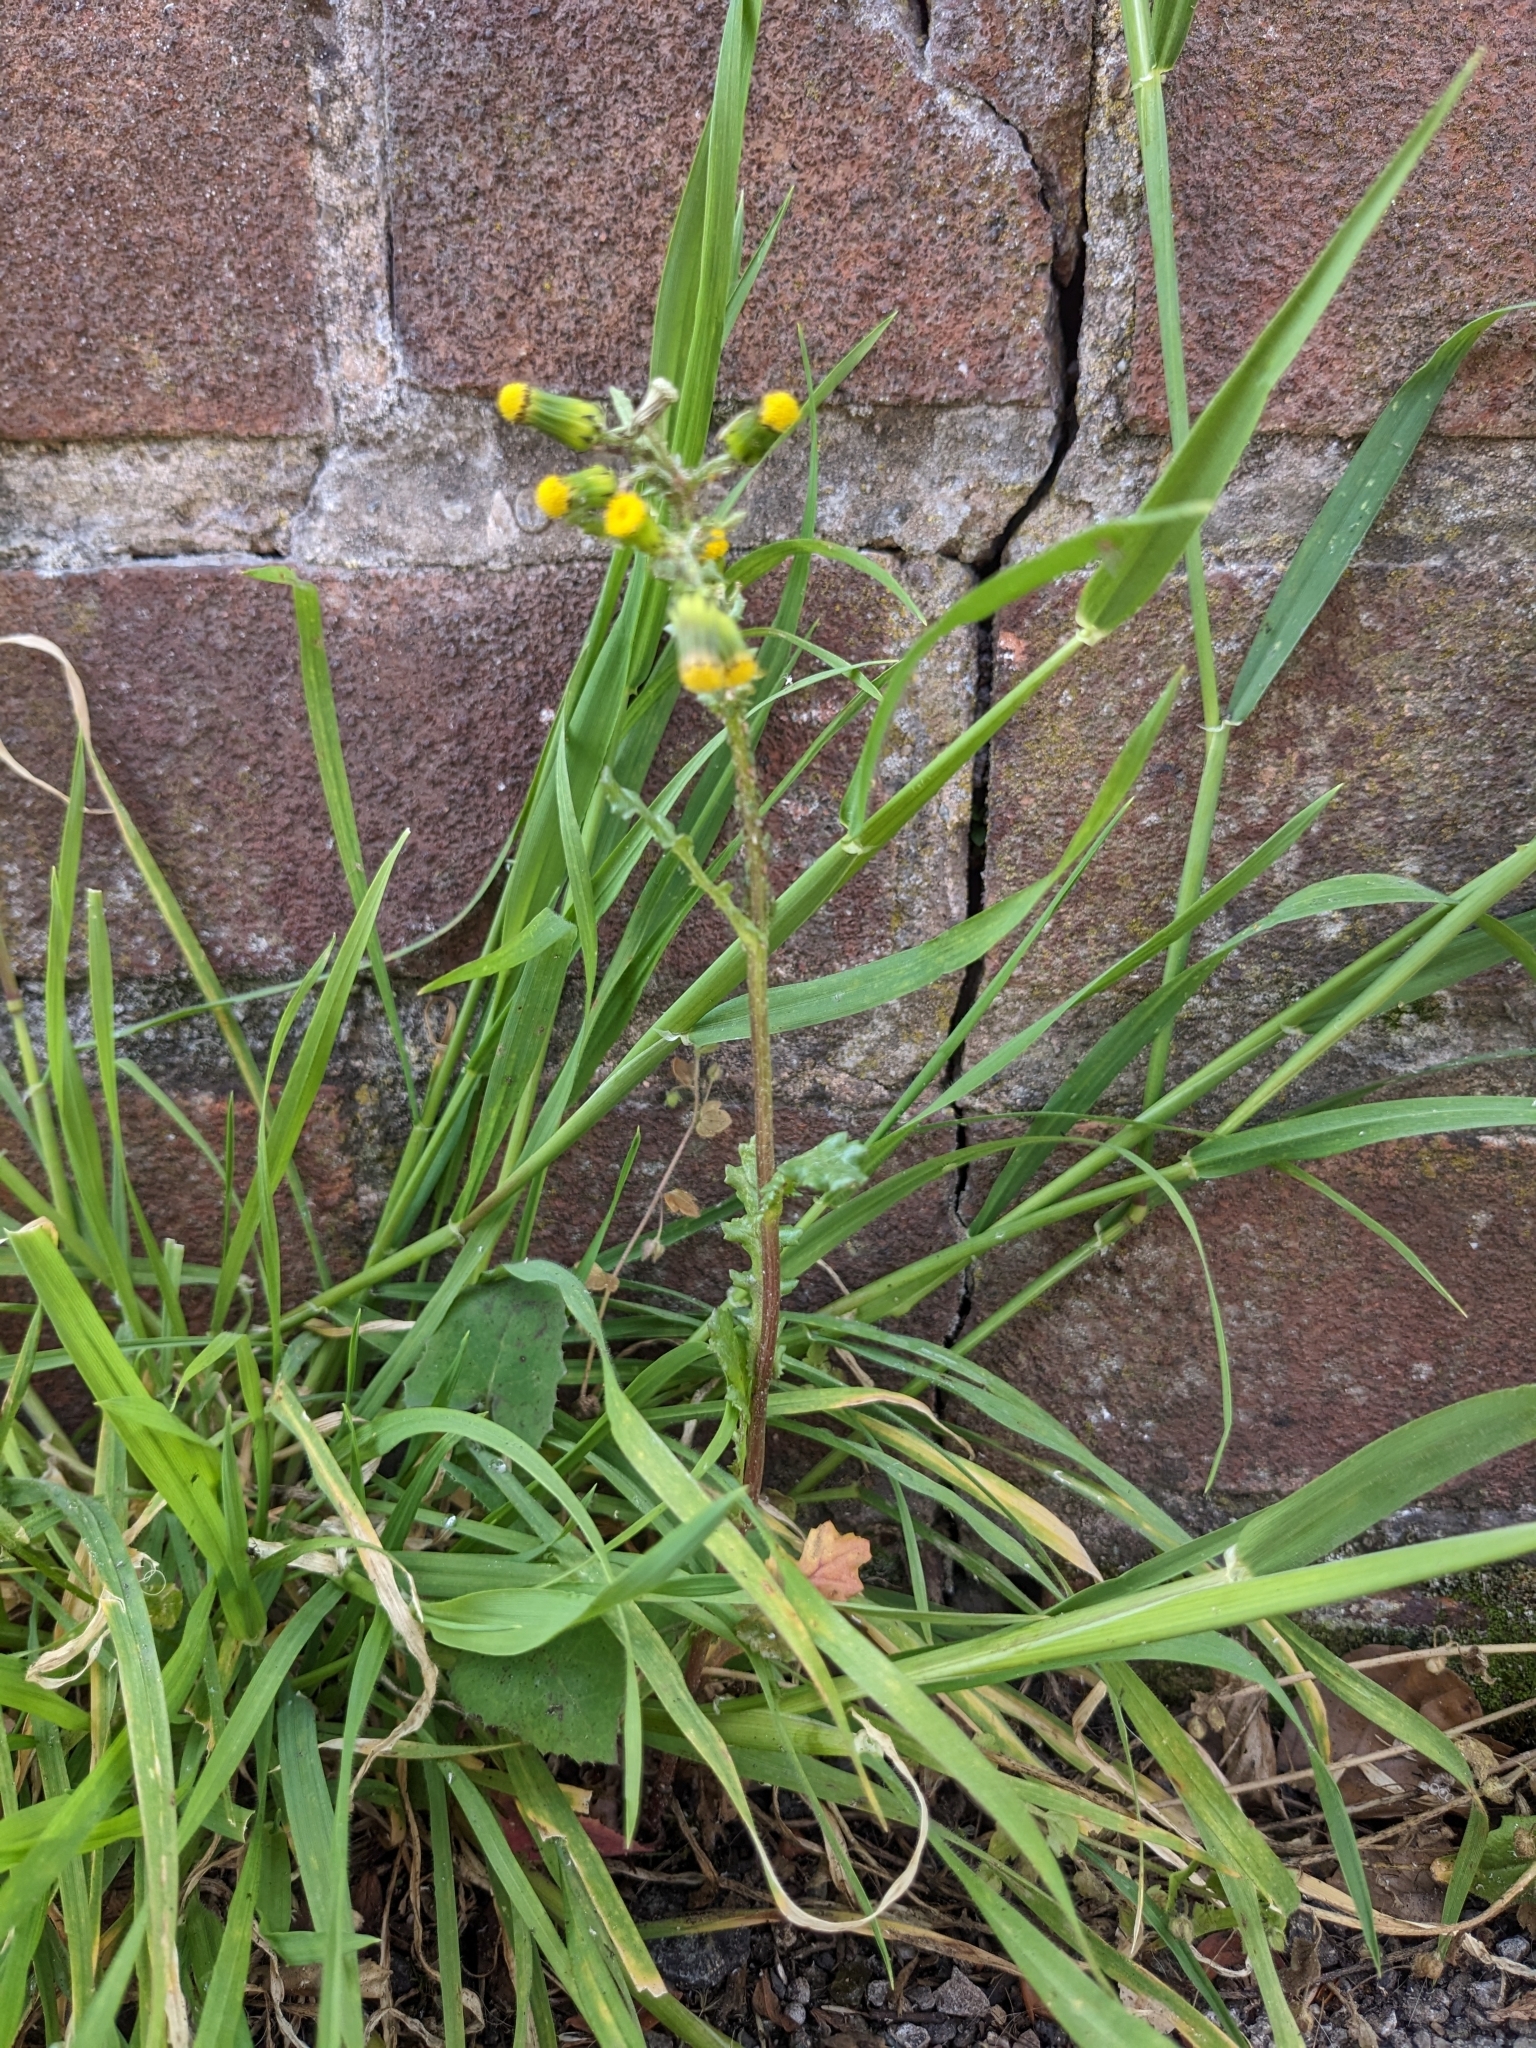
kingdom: Plantae
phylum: Tracheophyta
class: Magnoliopsida
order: Asterales
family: Asteraceae
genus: Senecio
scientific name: Senecio vulgaris
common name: Old-man-in-the-spring
